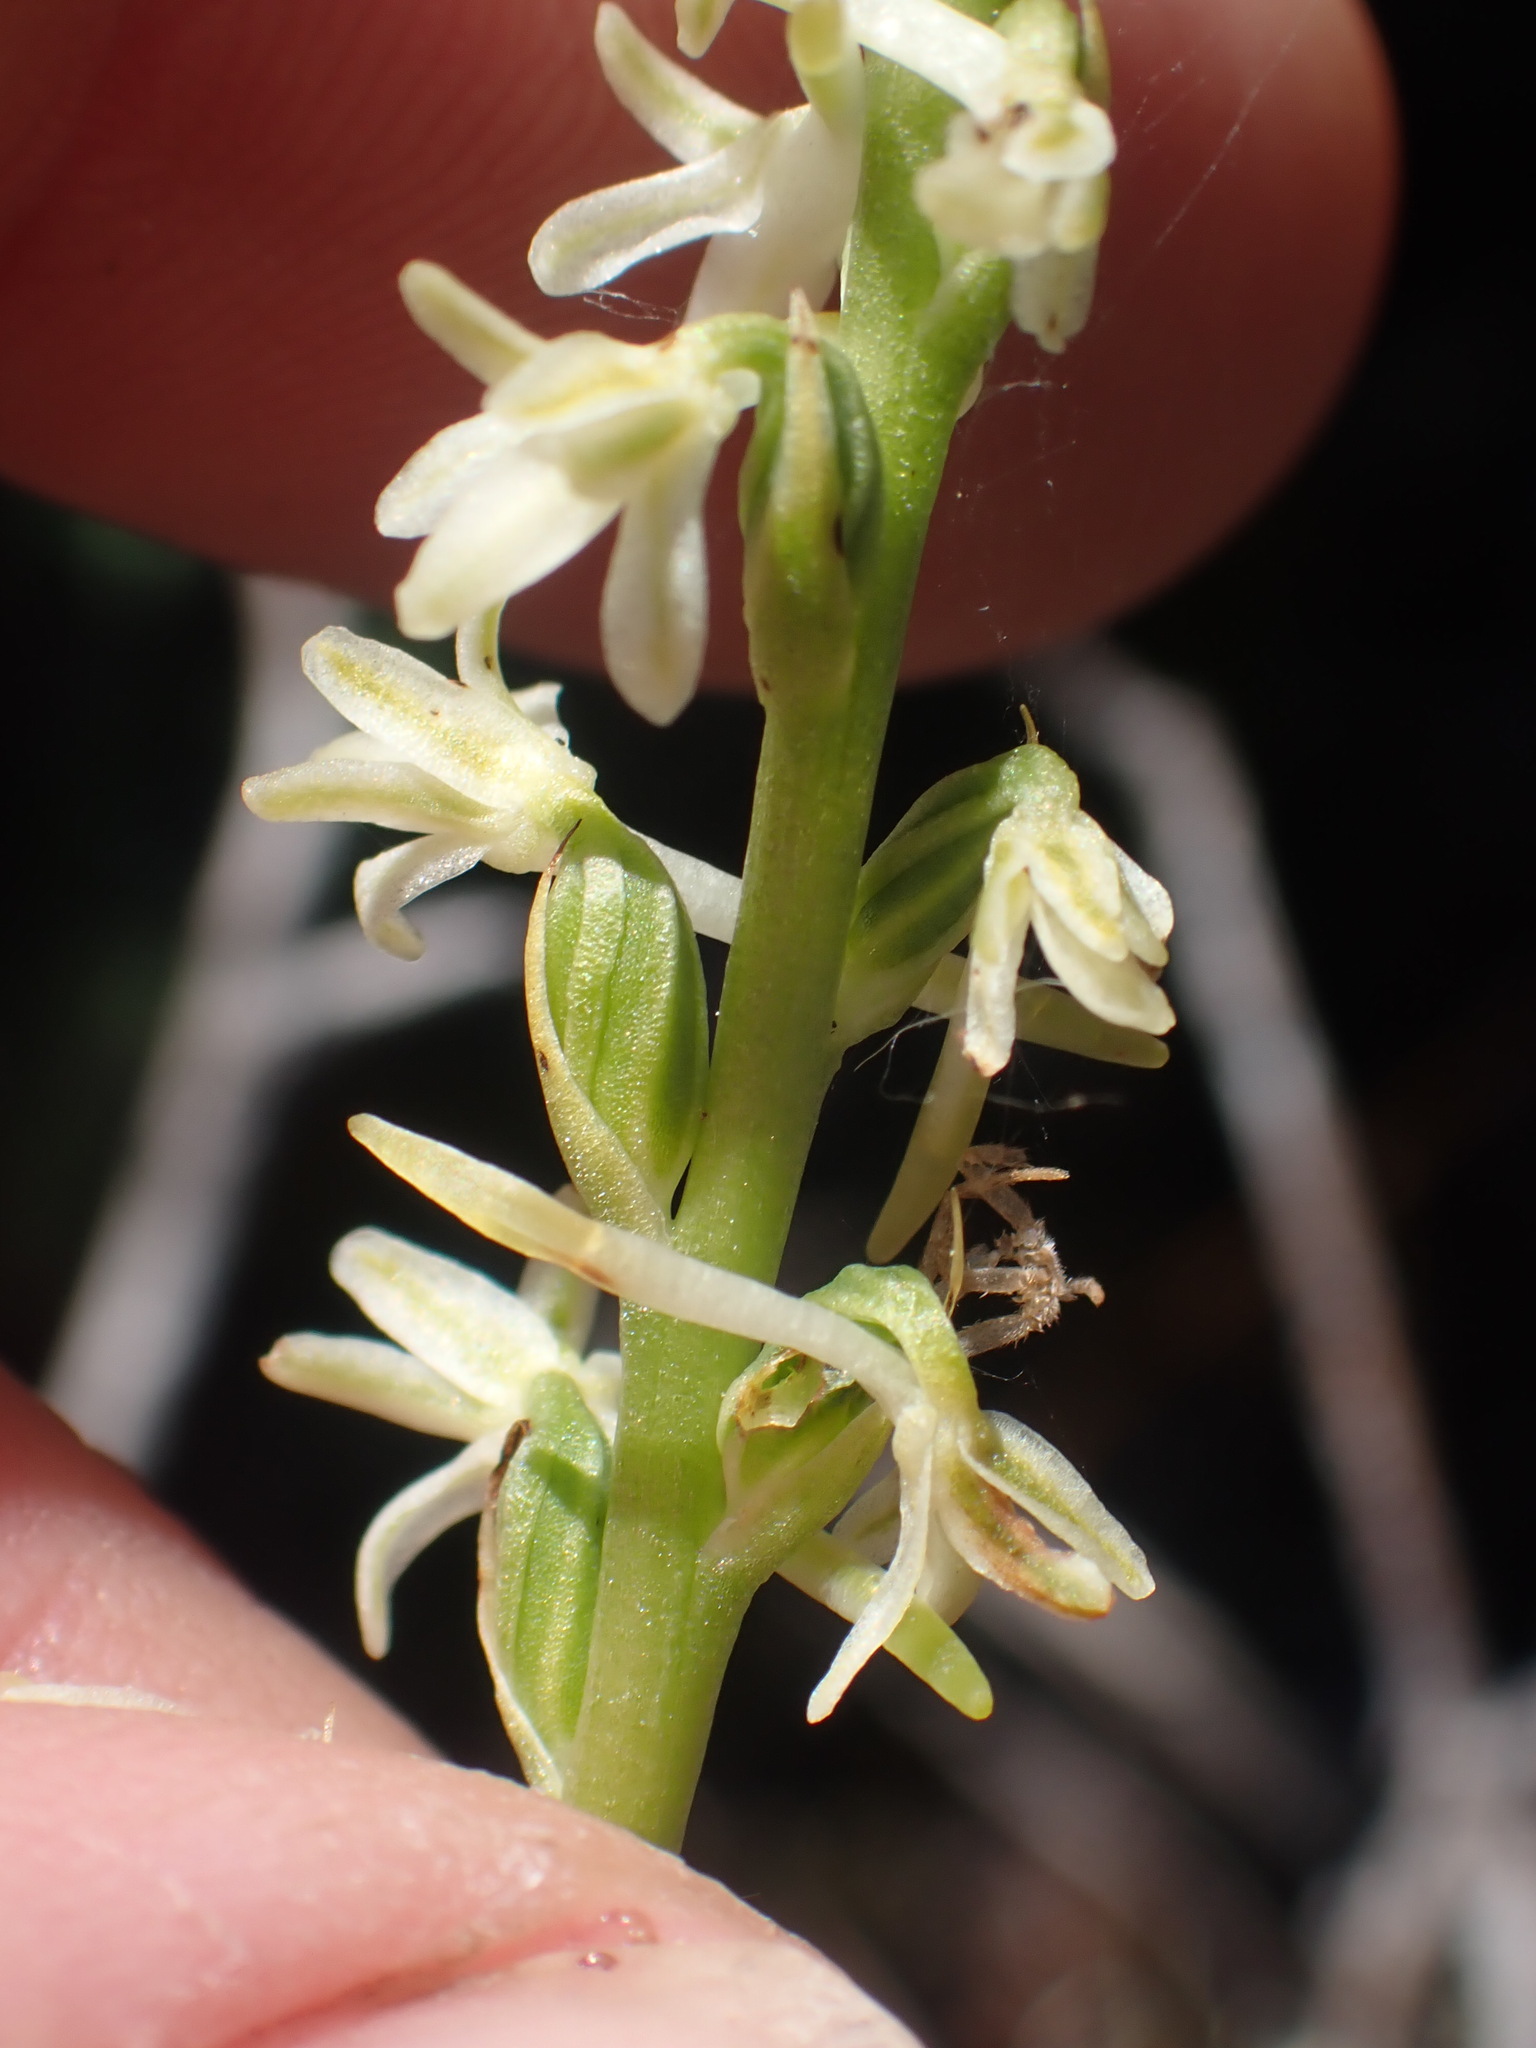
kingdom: Plantae
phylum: Tracheophyta
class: Liliopsida
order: Asparagales
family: Orchidaceae
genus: Platanthera
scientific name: Platanthera transversa
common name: Royal rein orchid
